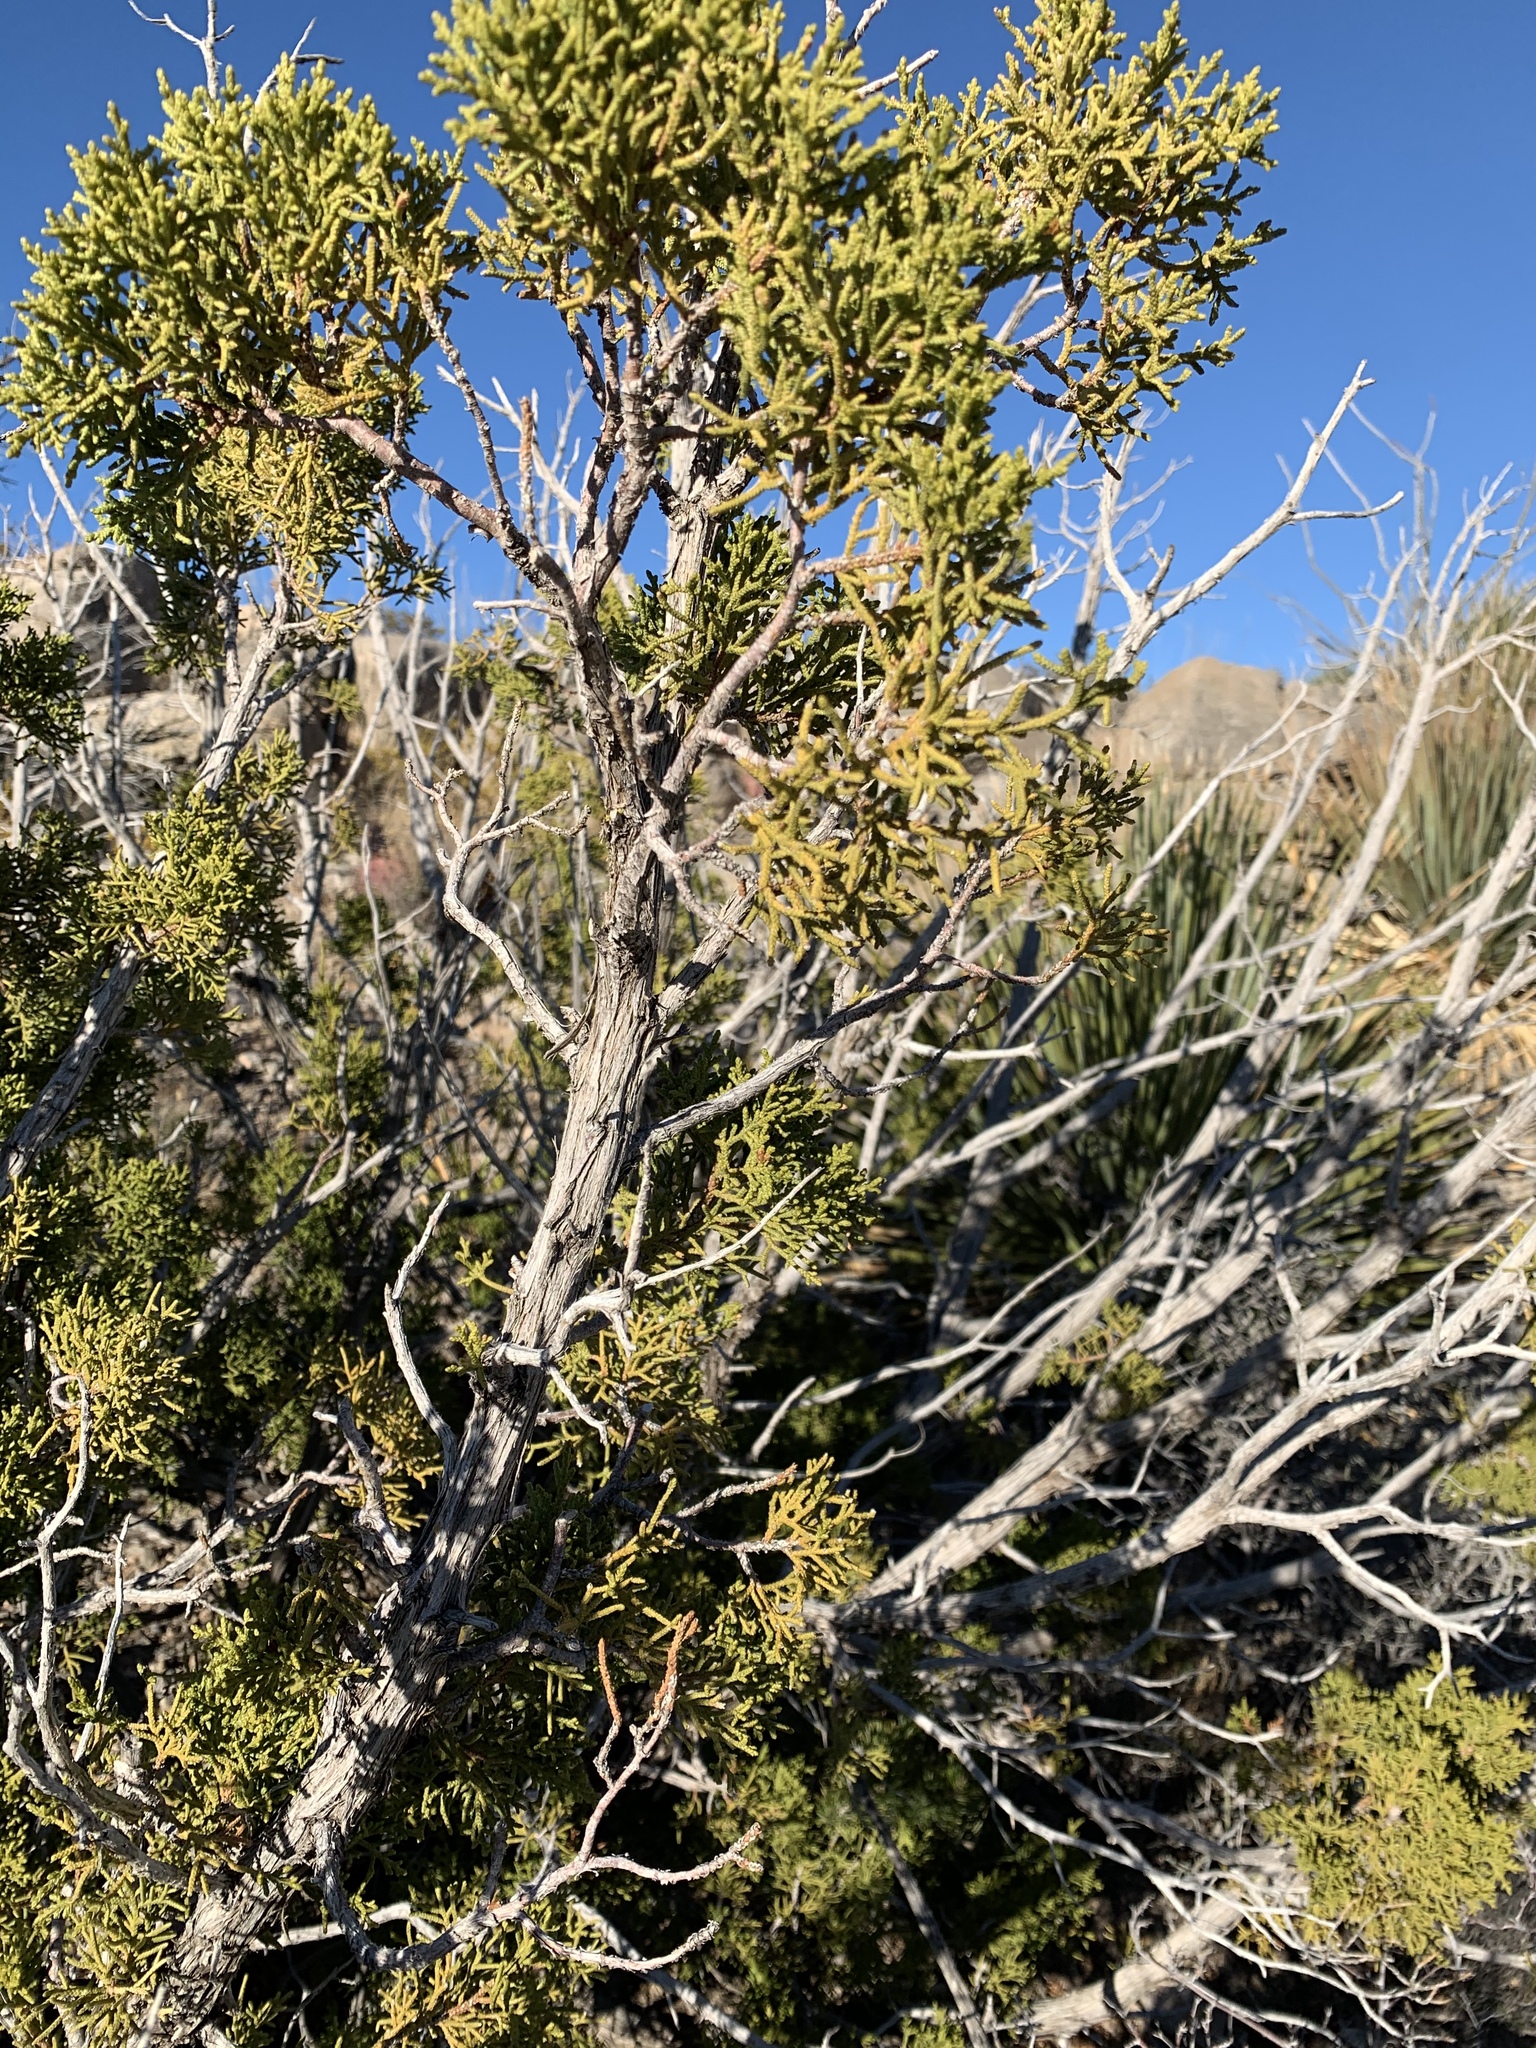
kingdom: Plantae
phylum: Tracheophyta
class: Pinopsida
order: Pinales
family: Cupressaceae
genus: Juniperus
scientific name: Juniperus monosperma
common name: One-seed juniper
